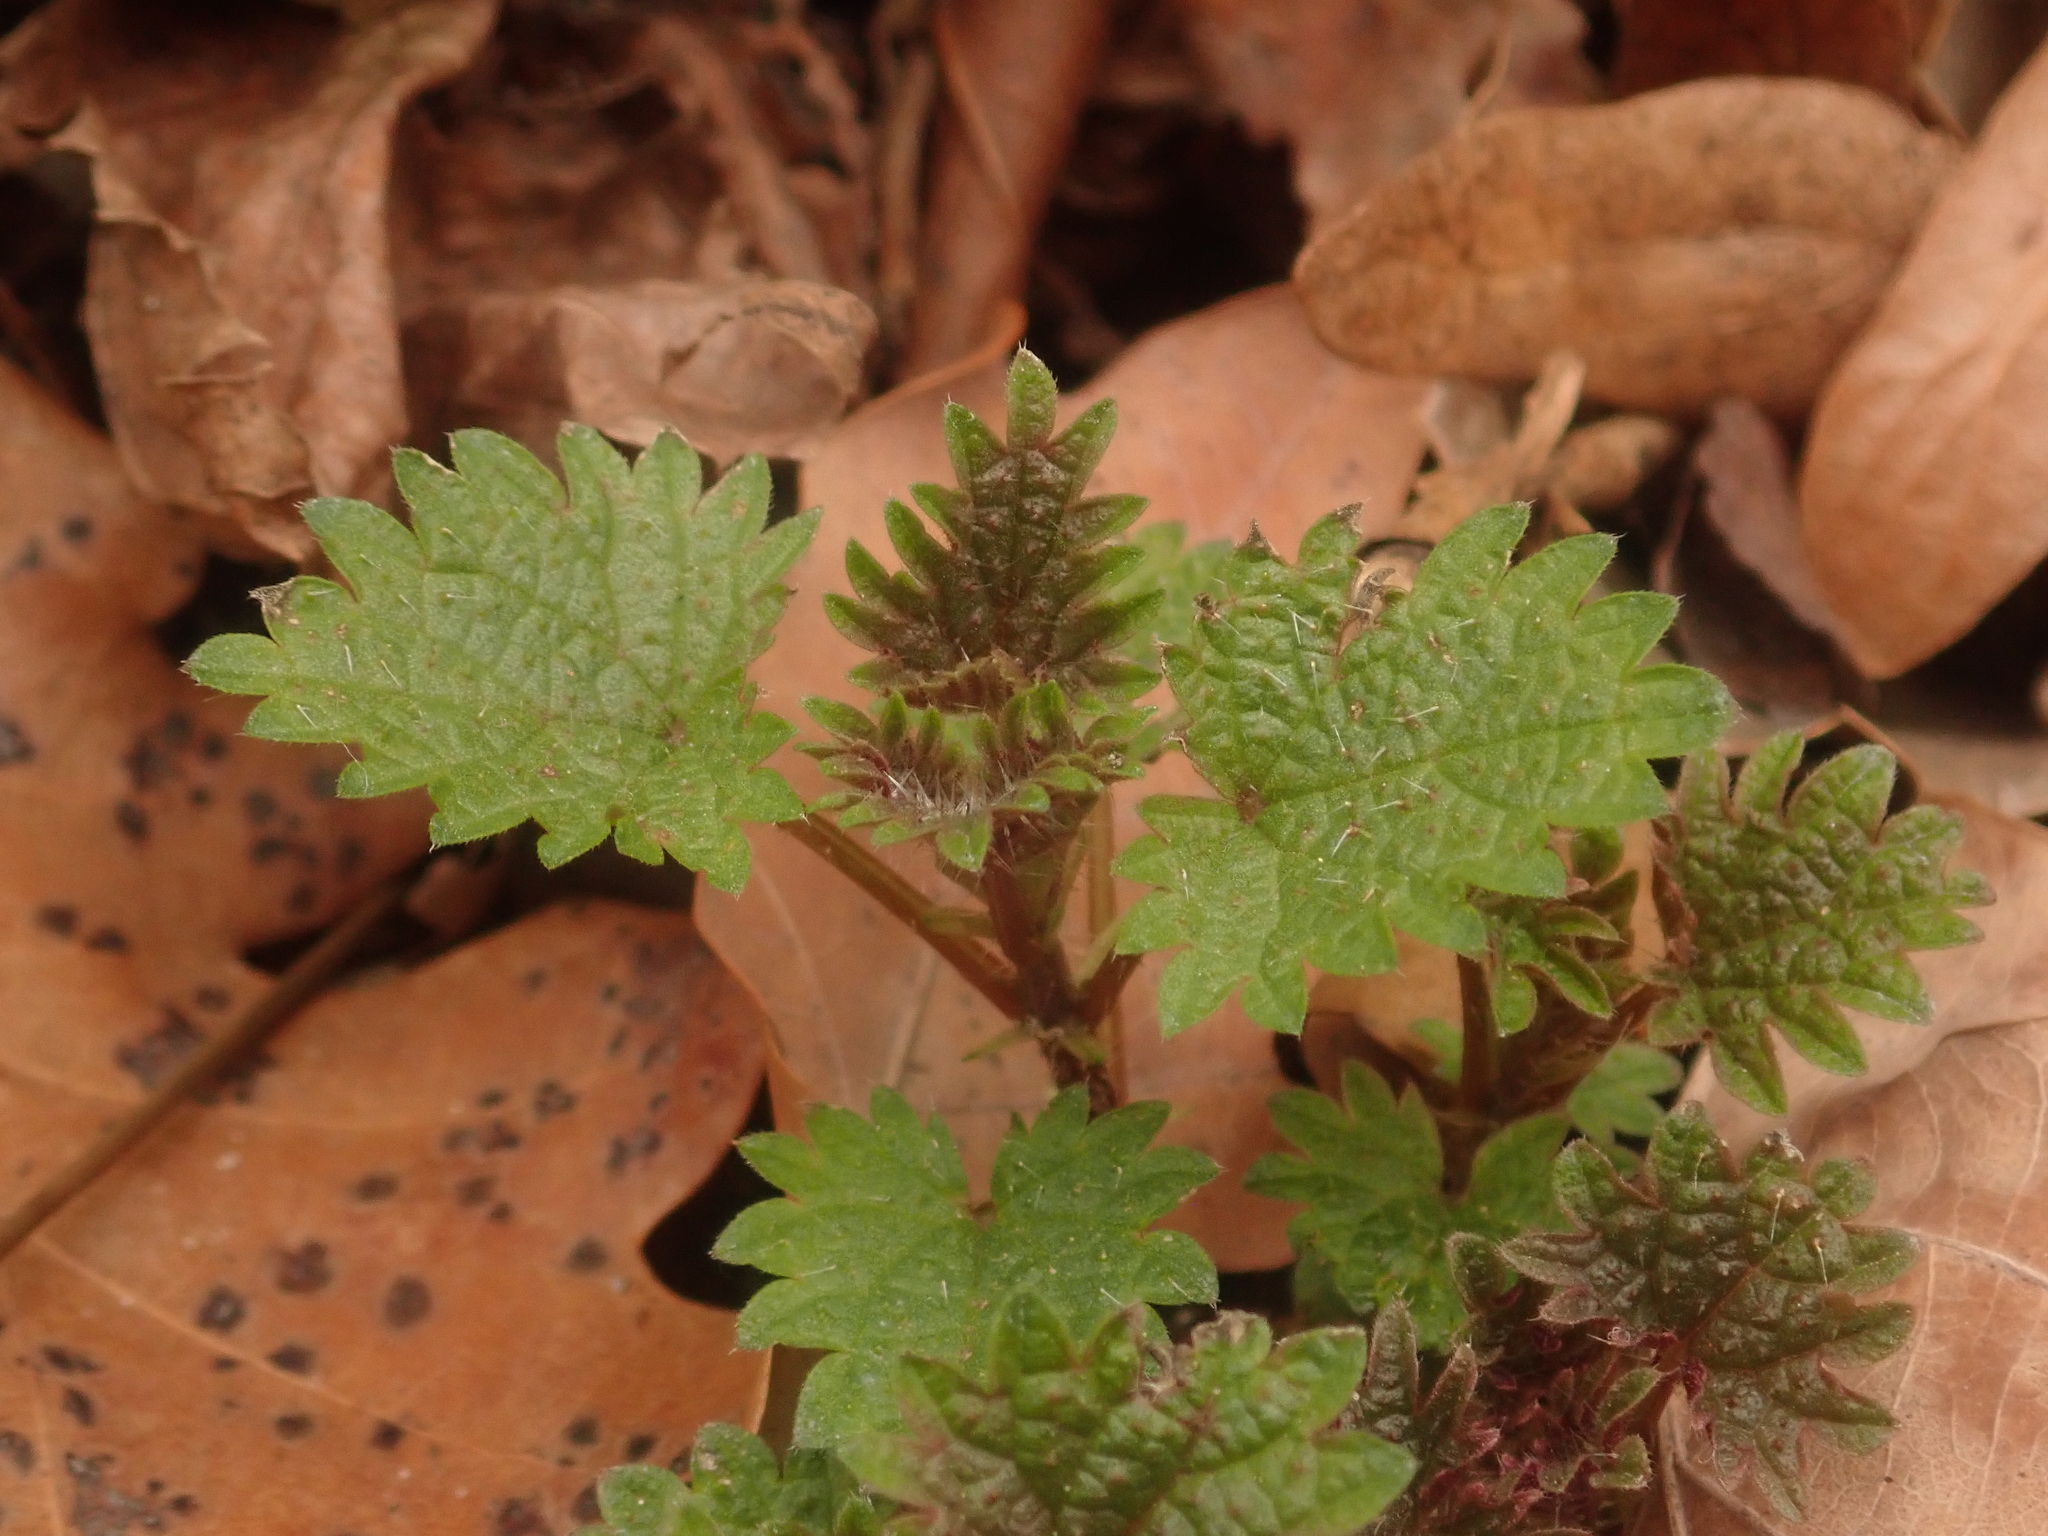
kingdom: Plantae
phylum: Tracheophyta
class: Magnoliopsida
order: Rosales
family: Urticaceae
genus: Urtica
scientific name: Urtica dioica
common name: Common nettle
